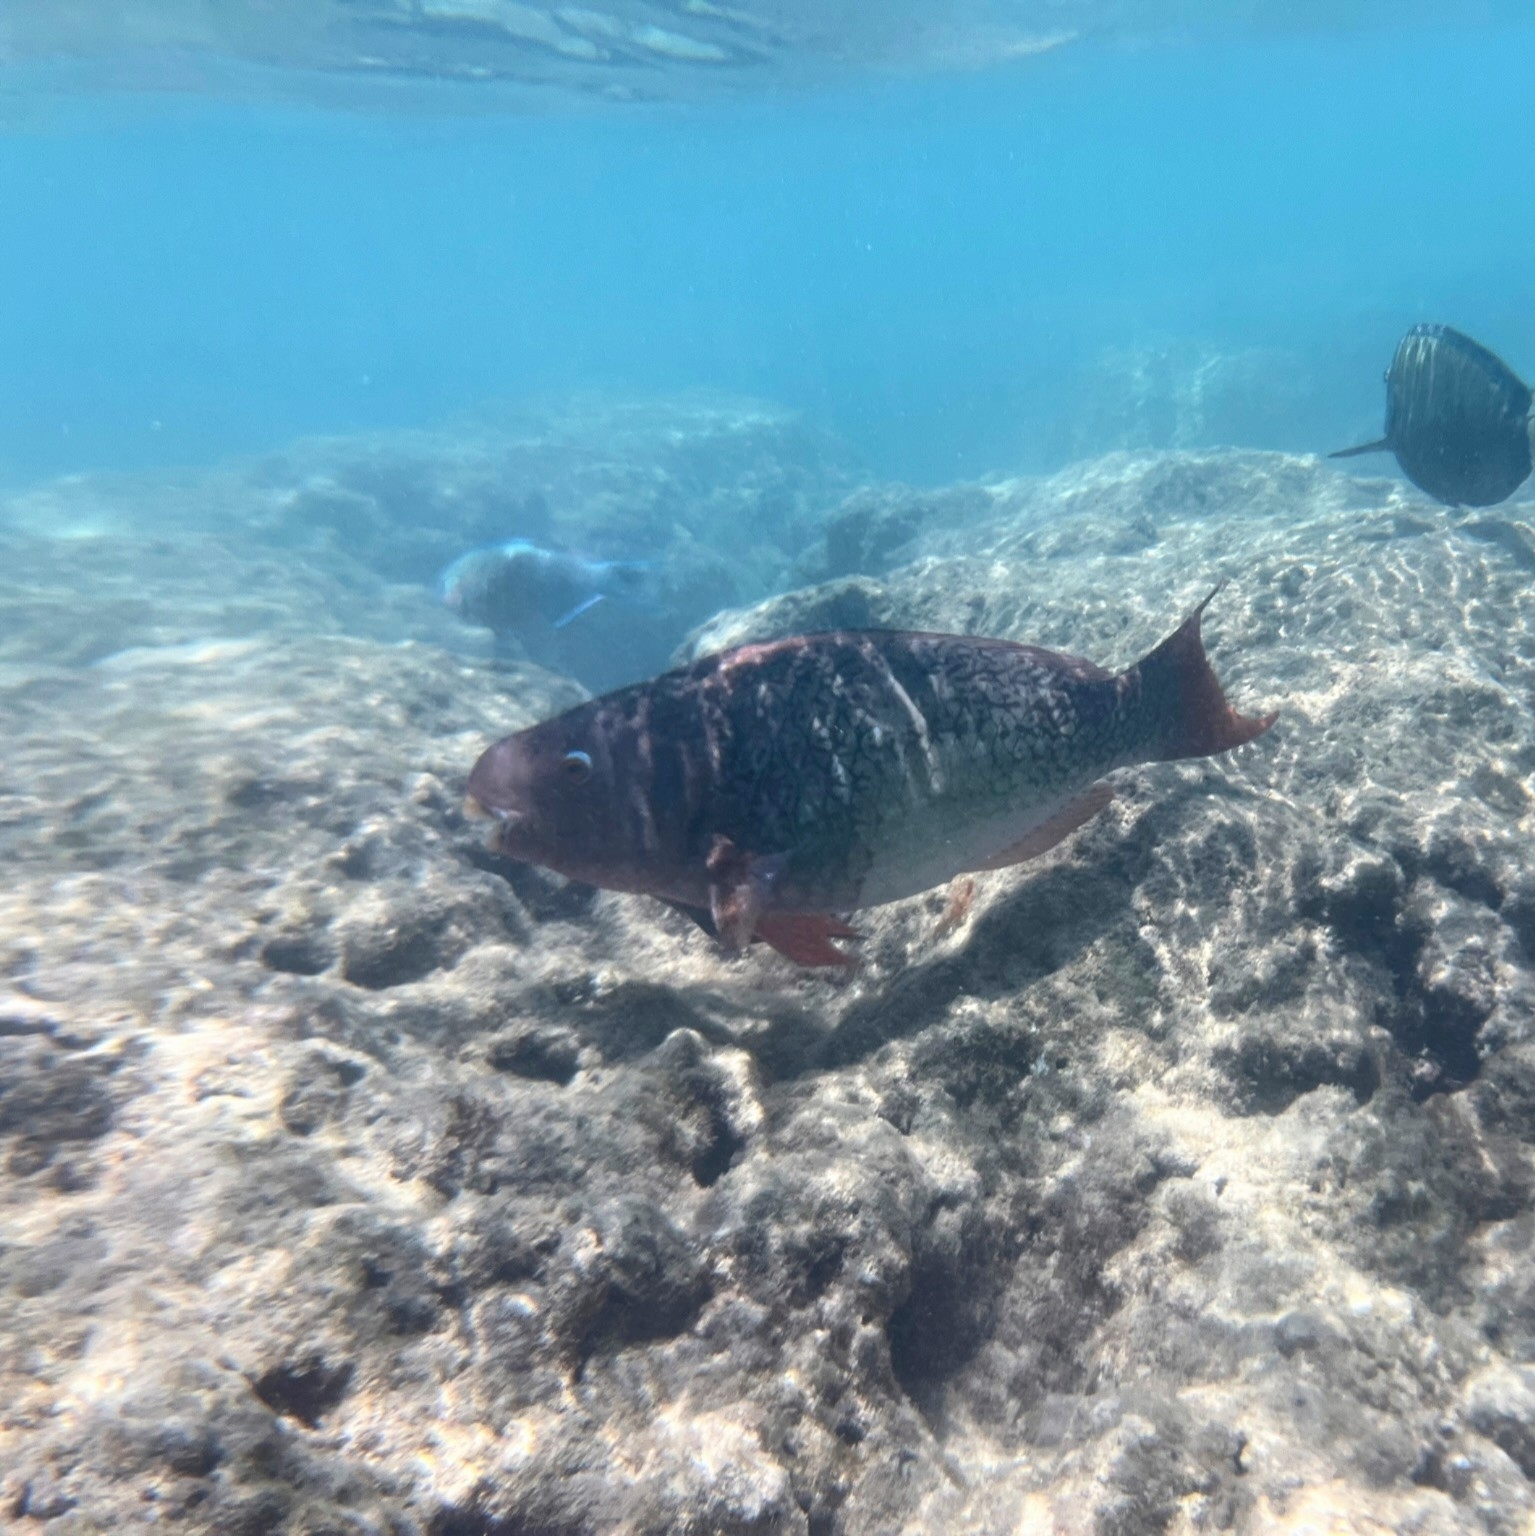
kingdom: Animalia
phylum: Chordata
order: Perciformes
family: Scaridae
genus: Scarus
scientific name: Scarus rubroviolaceus
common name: Ember parrotfish
